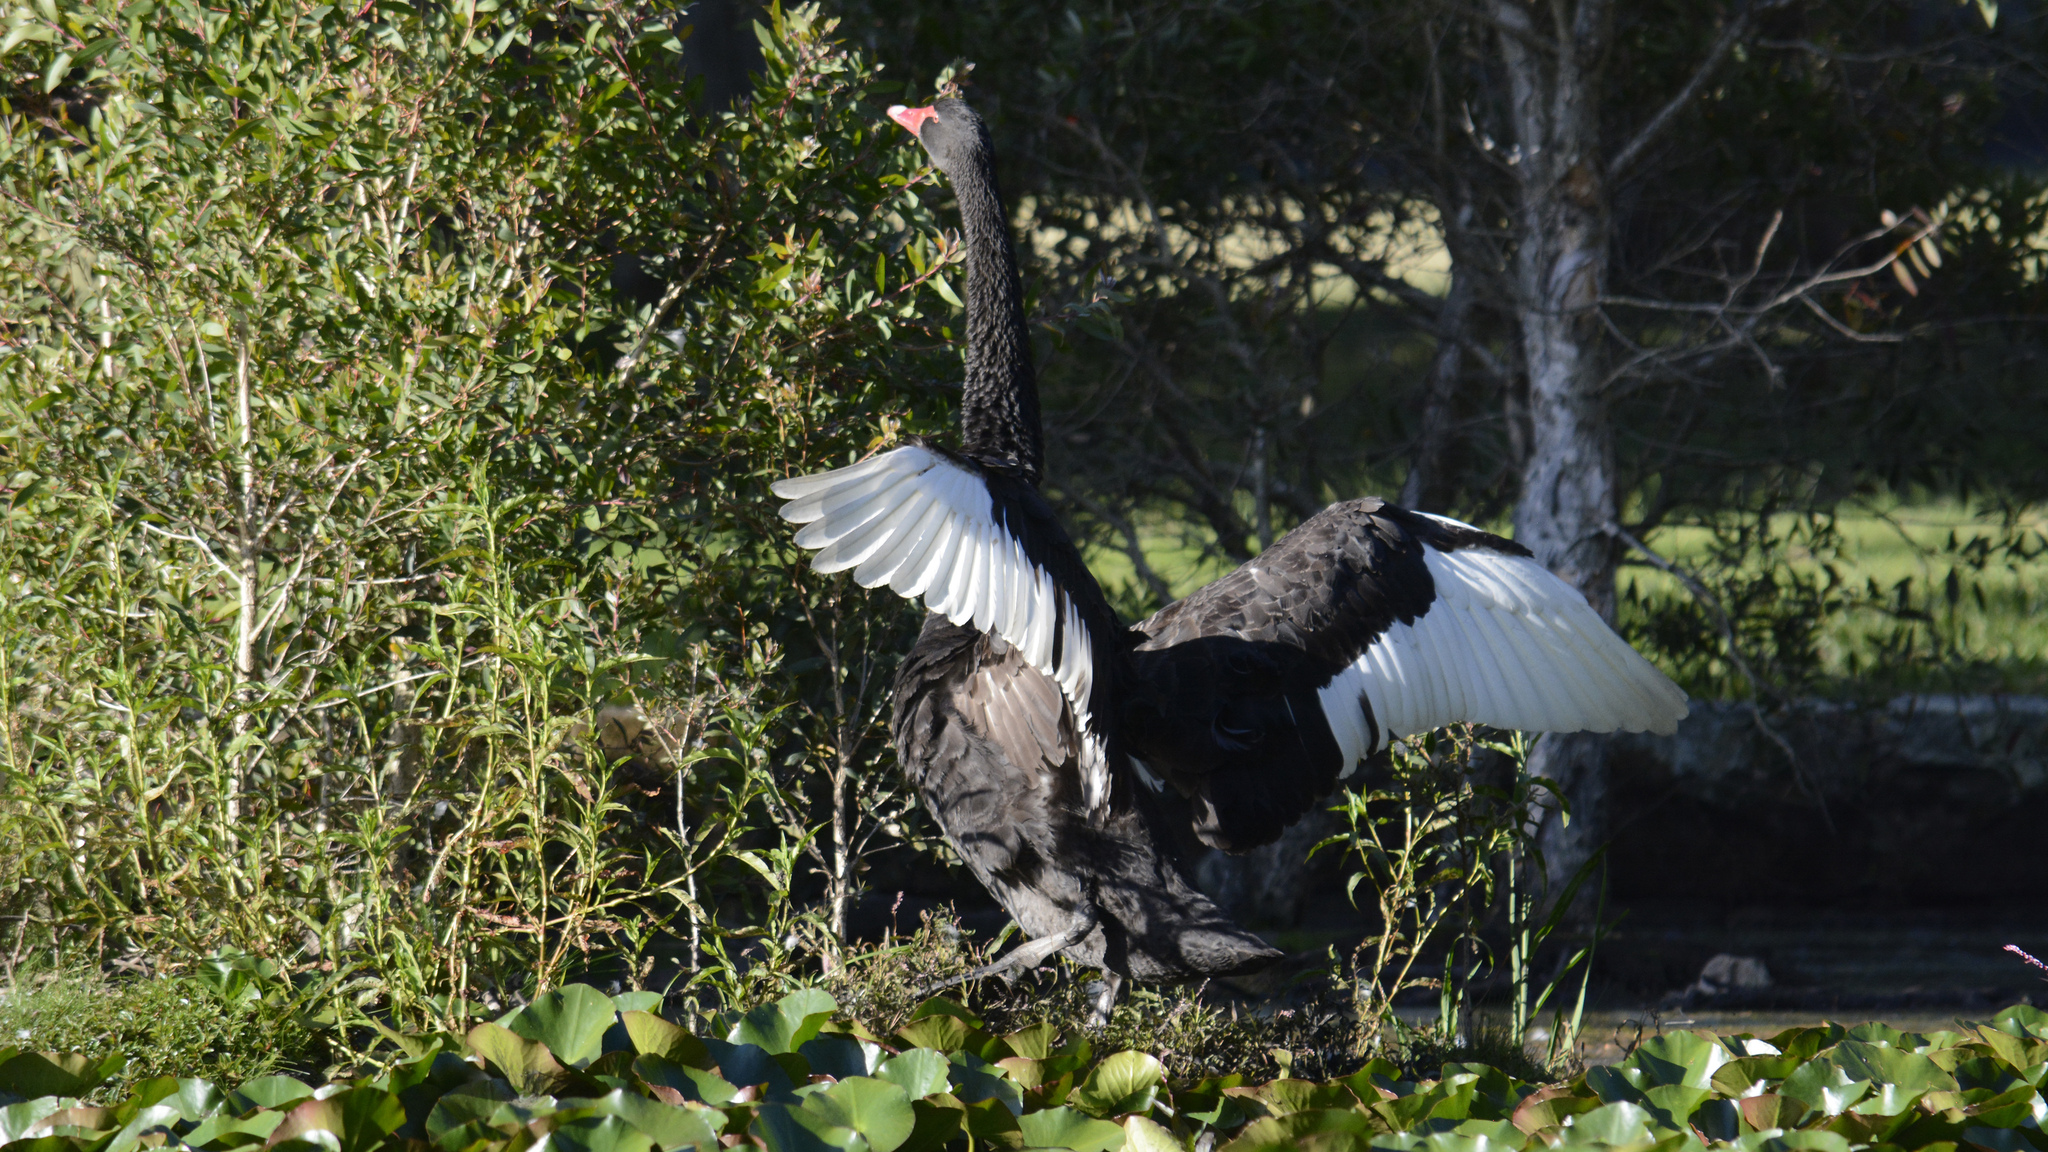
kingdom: Animalia
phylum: Chordata
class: Aves
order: Anseriformes
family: Anatidae
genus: Cygnus
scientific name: Cygnus atratus
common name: Black swan
